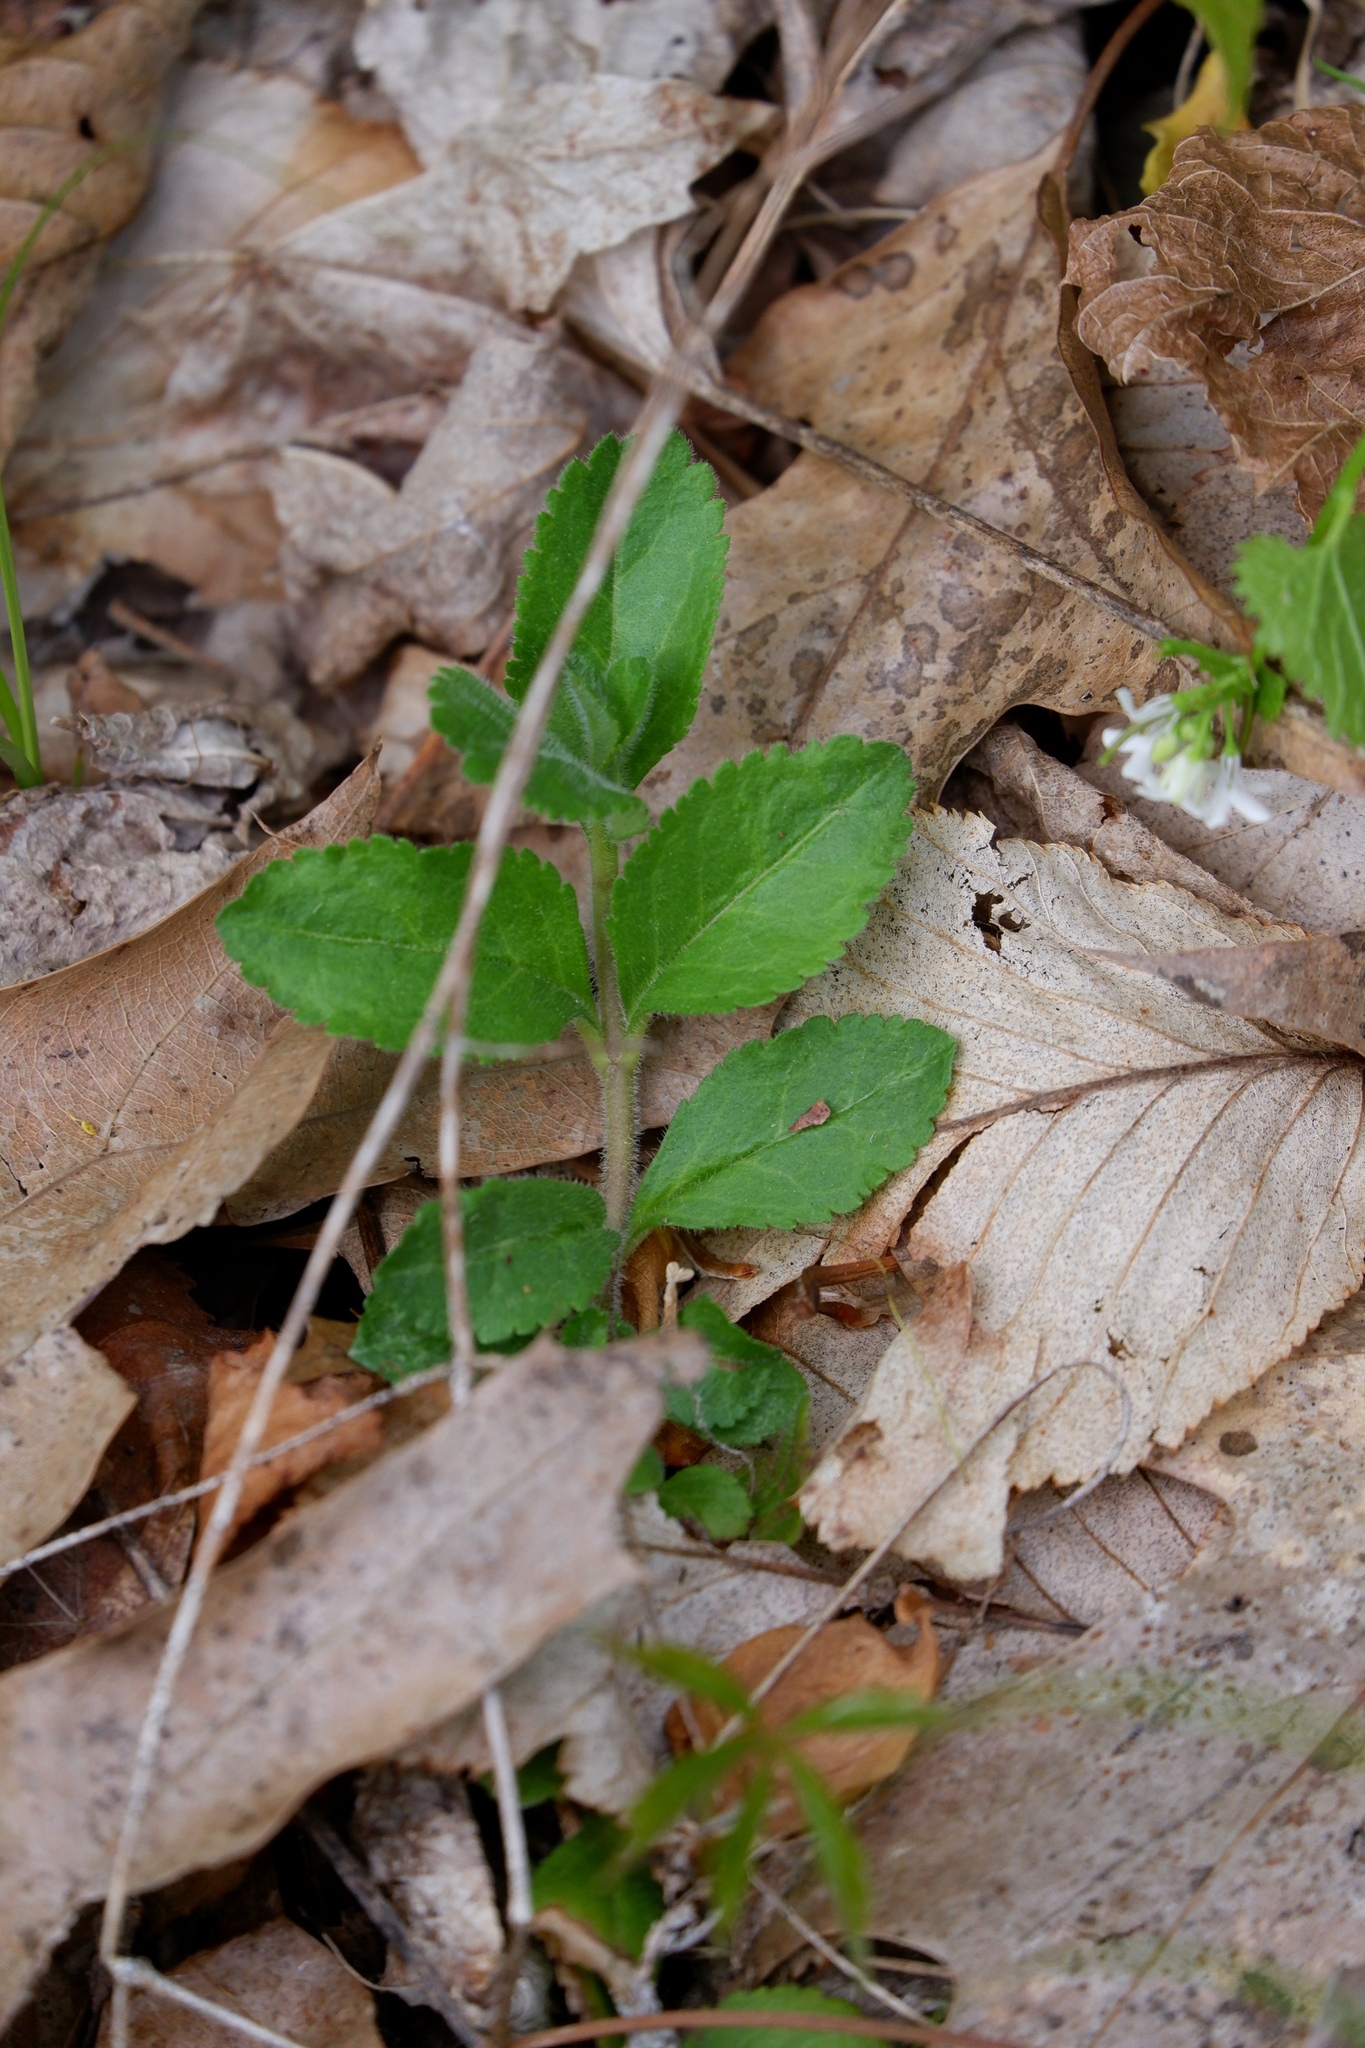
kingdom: Plantae
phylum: Tracheophyta
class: Magnoliopsida
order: Lamiales
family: Plantaginaceae
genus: Veronica
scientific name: Veronica officinalis
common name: Common speedwell
